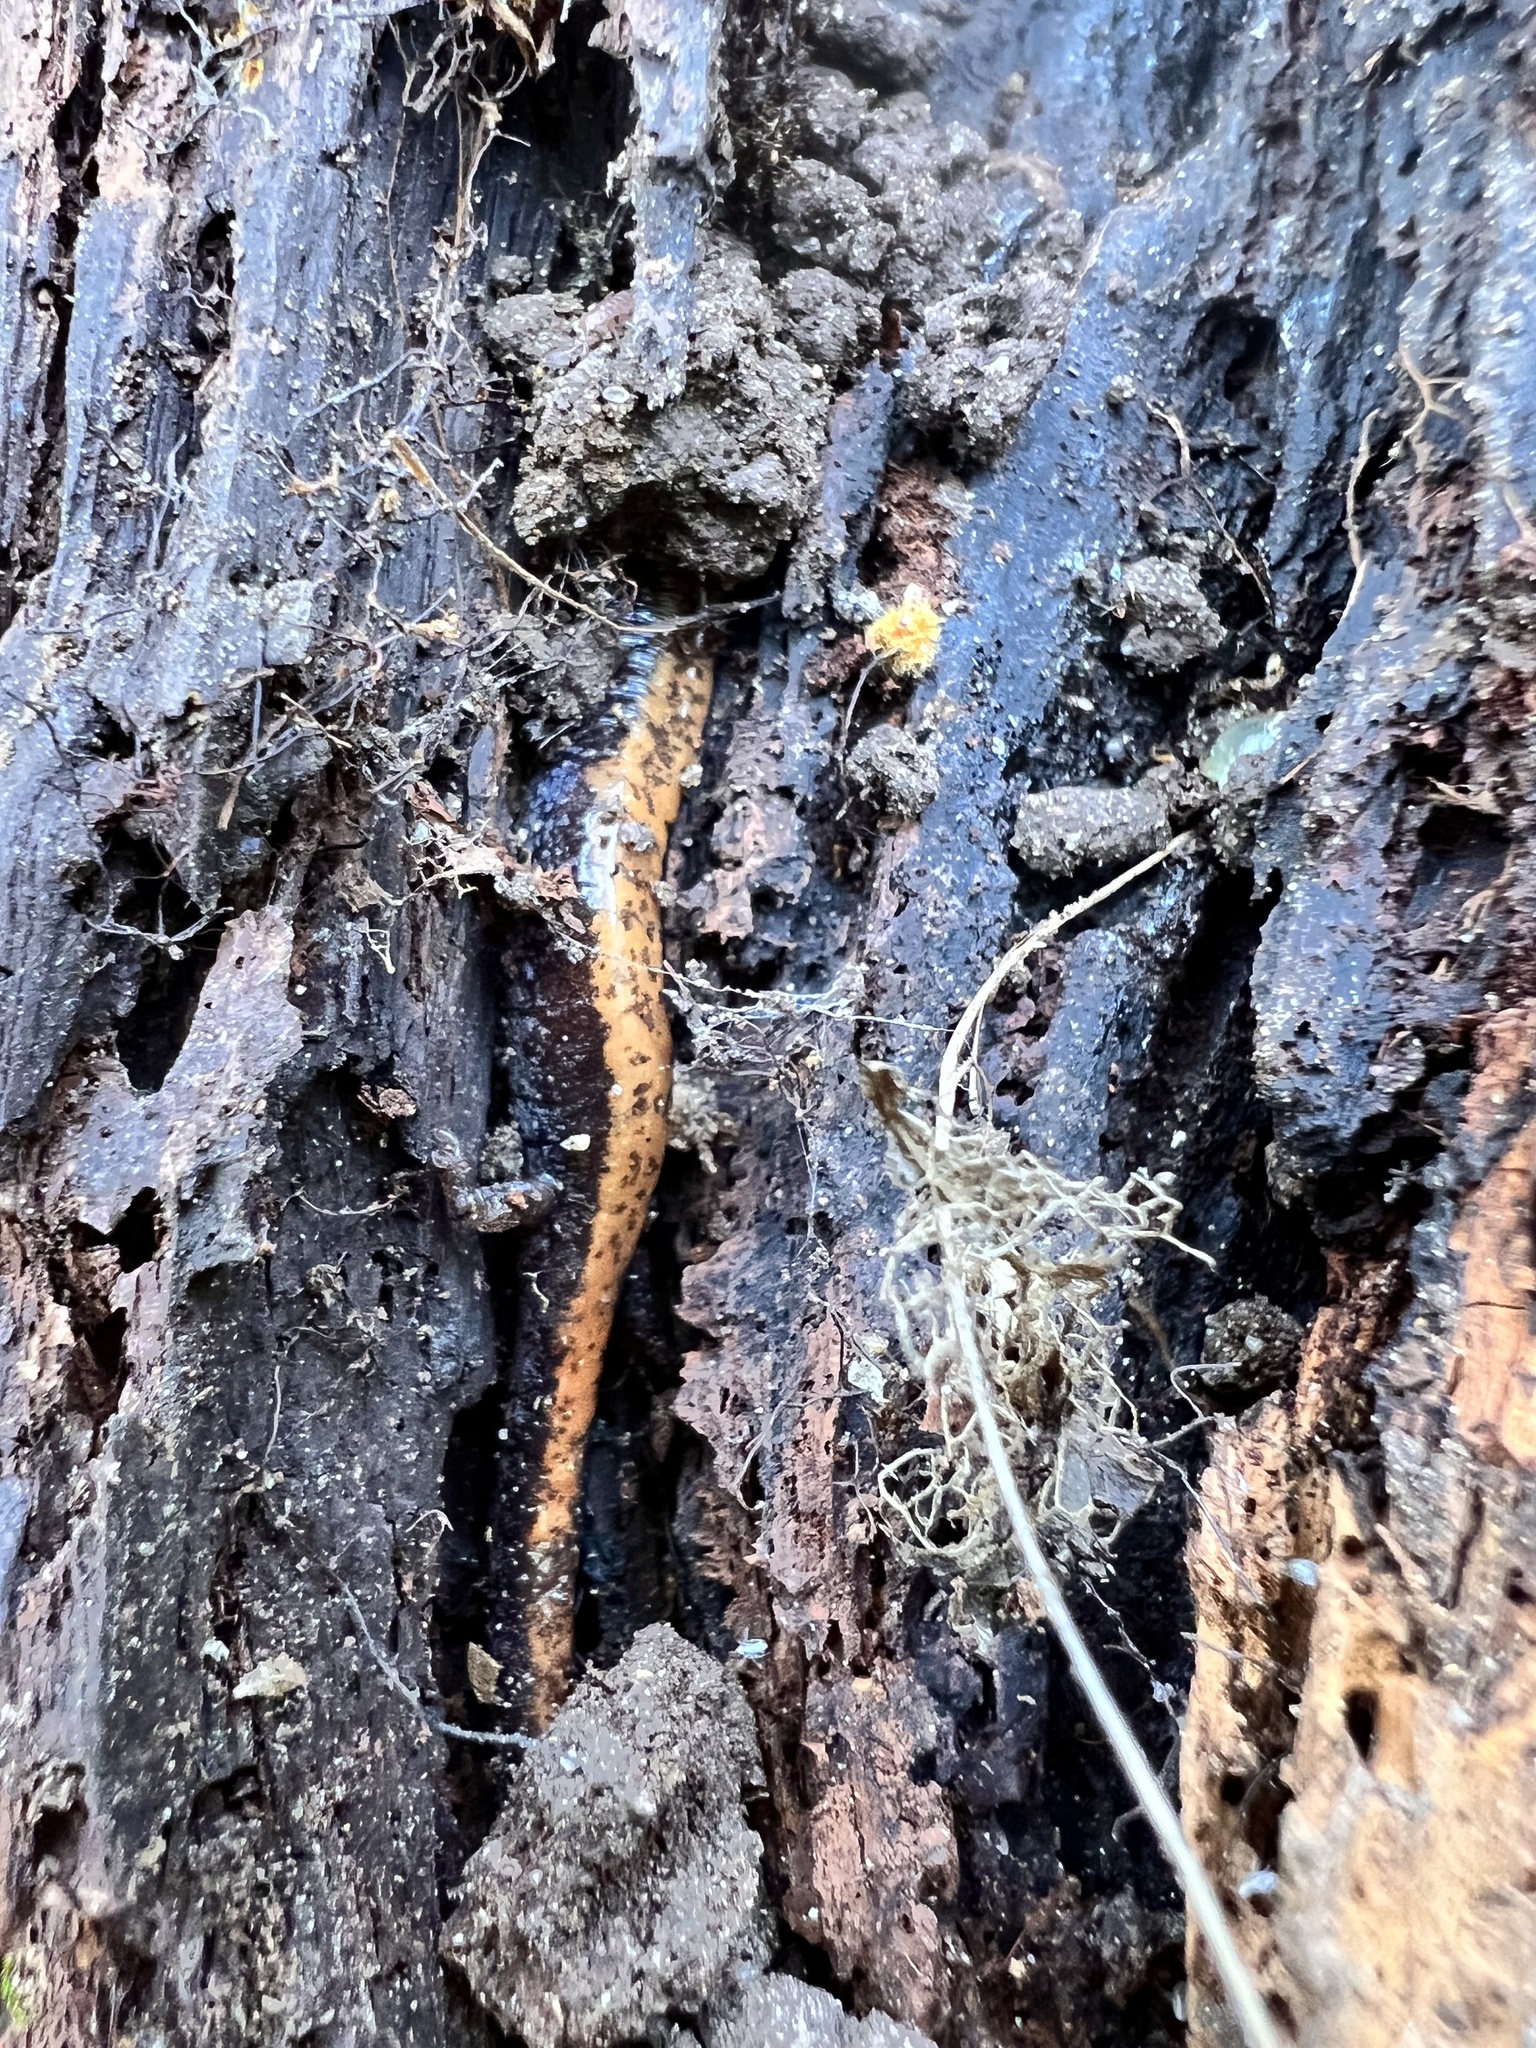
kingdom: Animalia
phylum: Chordata
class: Amphibia
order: Caudata
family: Plethodontidae
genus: Plethodon
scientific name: Plethodon cinereus
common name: Redback salamander
